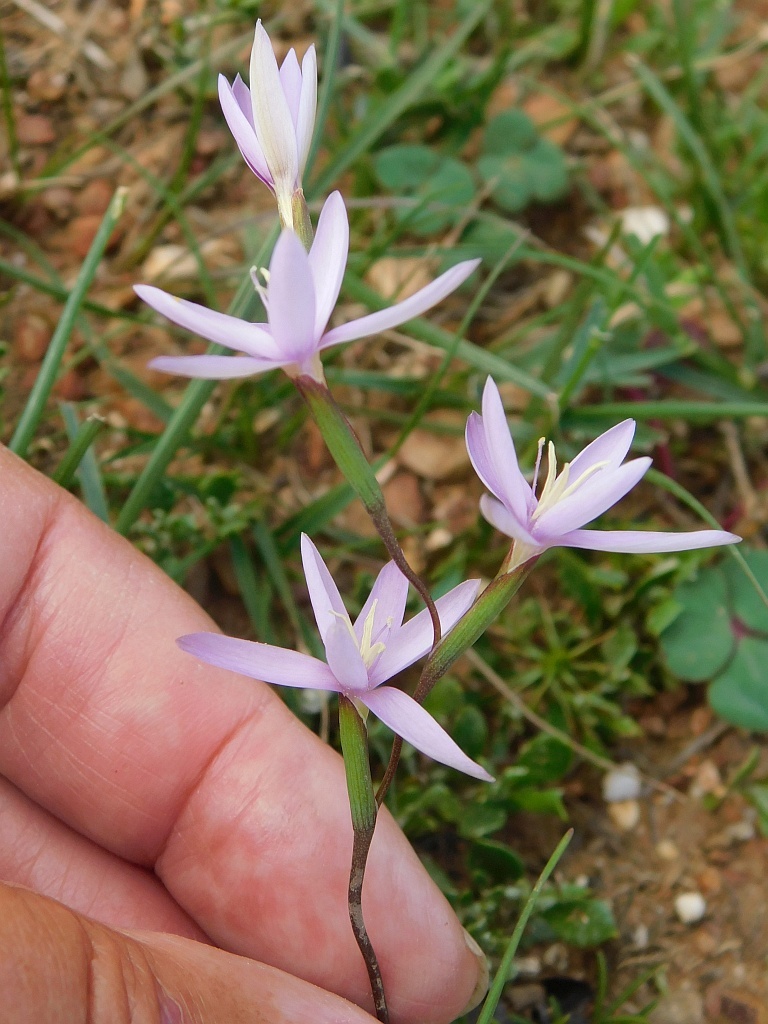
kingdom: Plantae
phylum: Tracheophyta
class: Liliopsida
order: Asparagales
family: Iridaceae
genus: Hesperantha
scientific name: Hesperantha fibrosa
